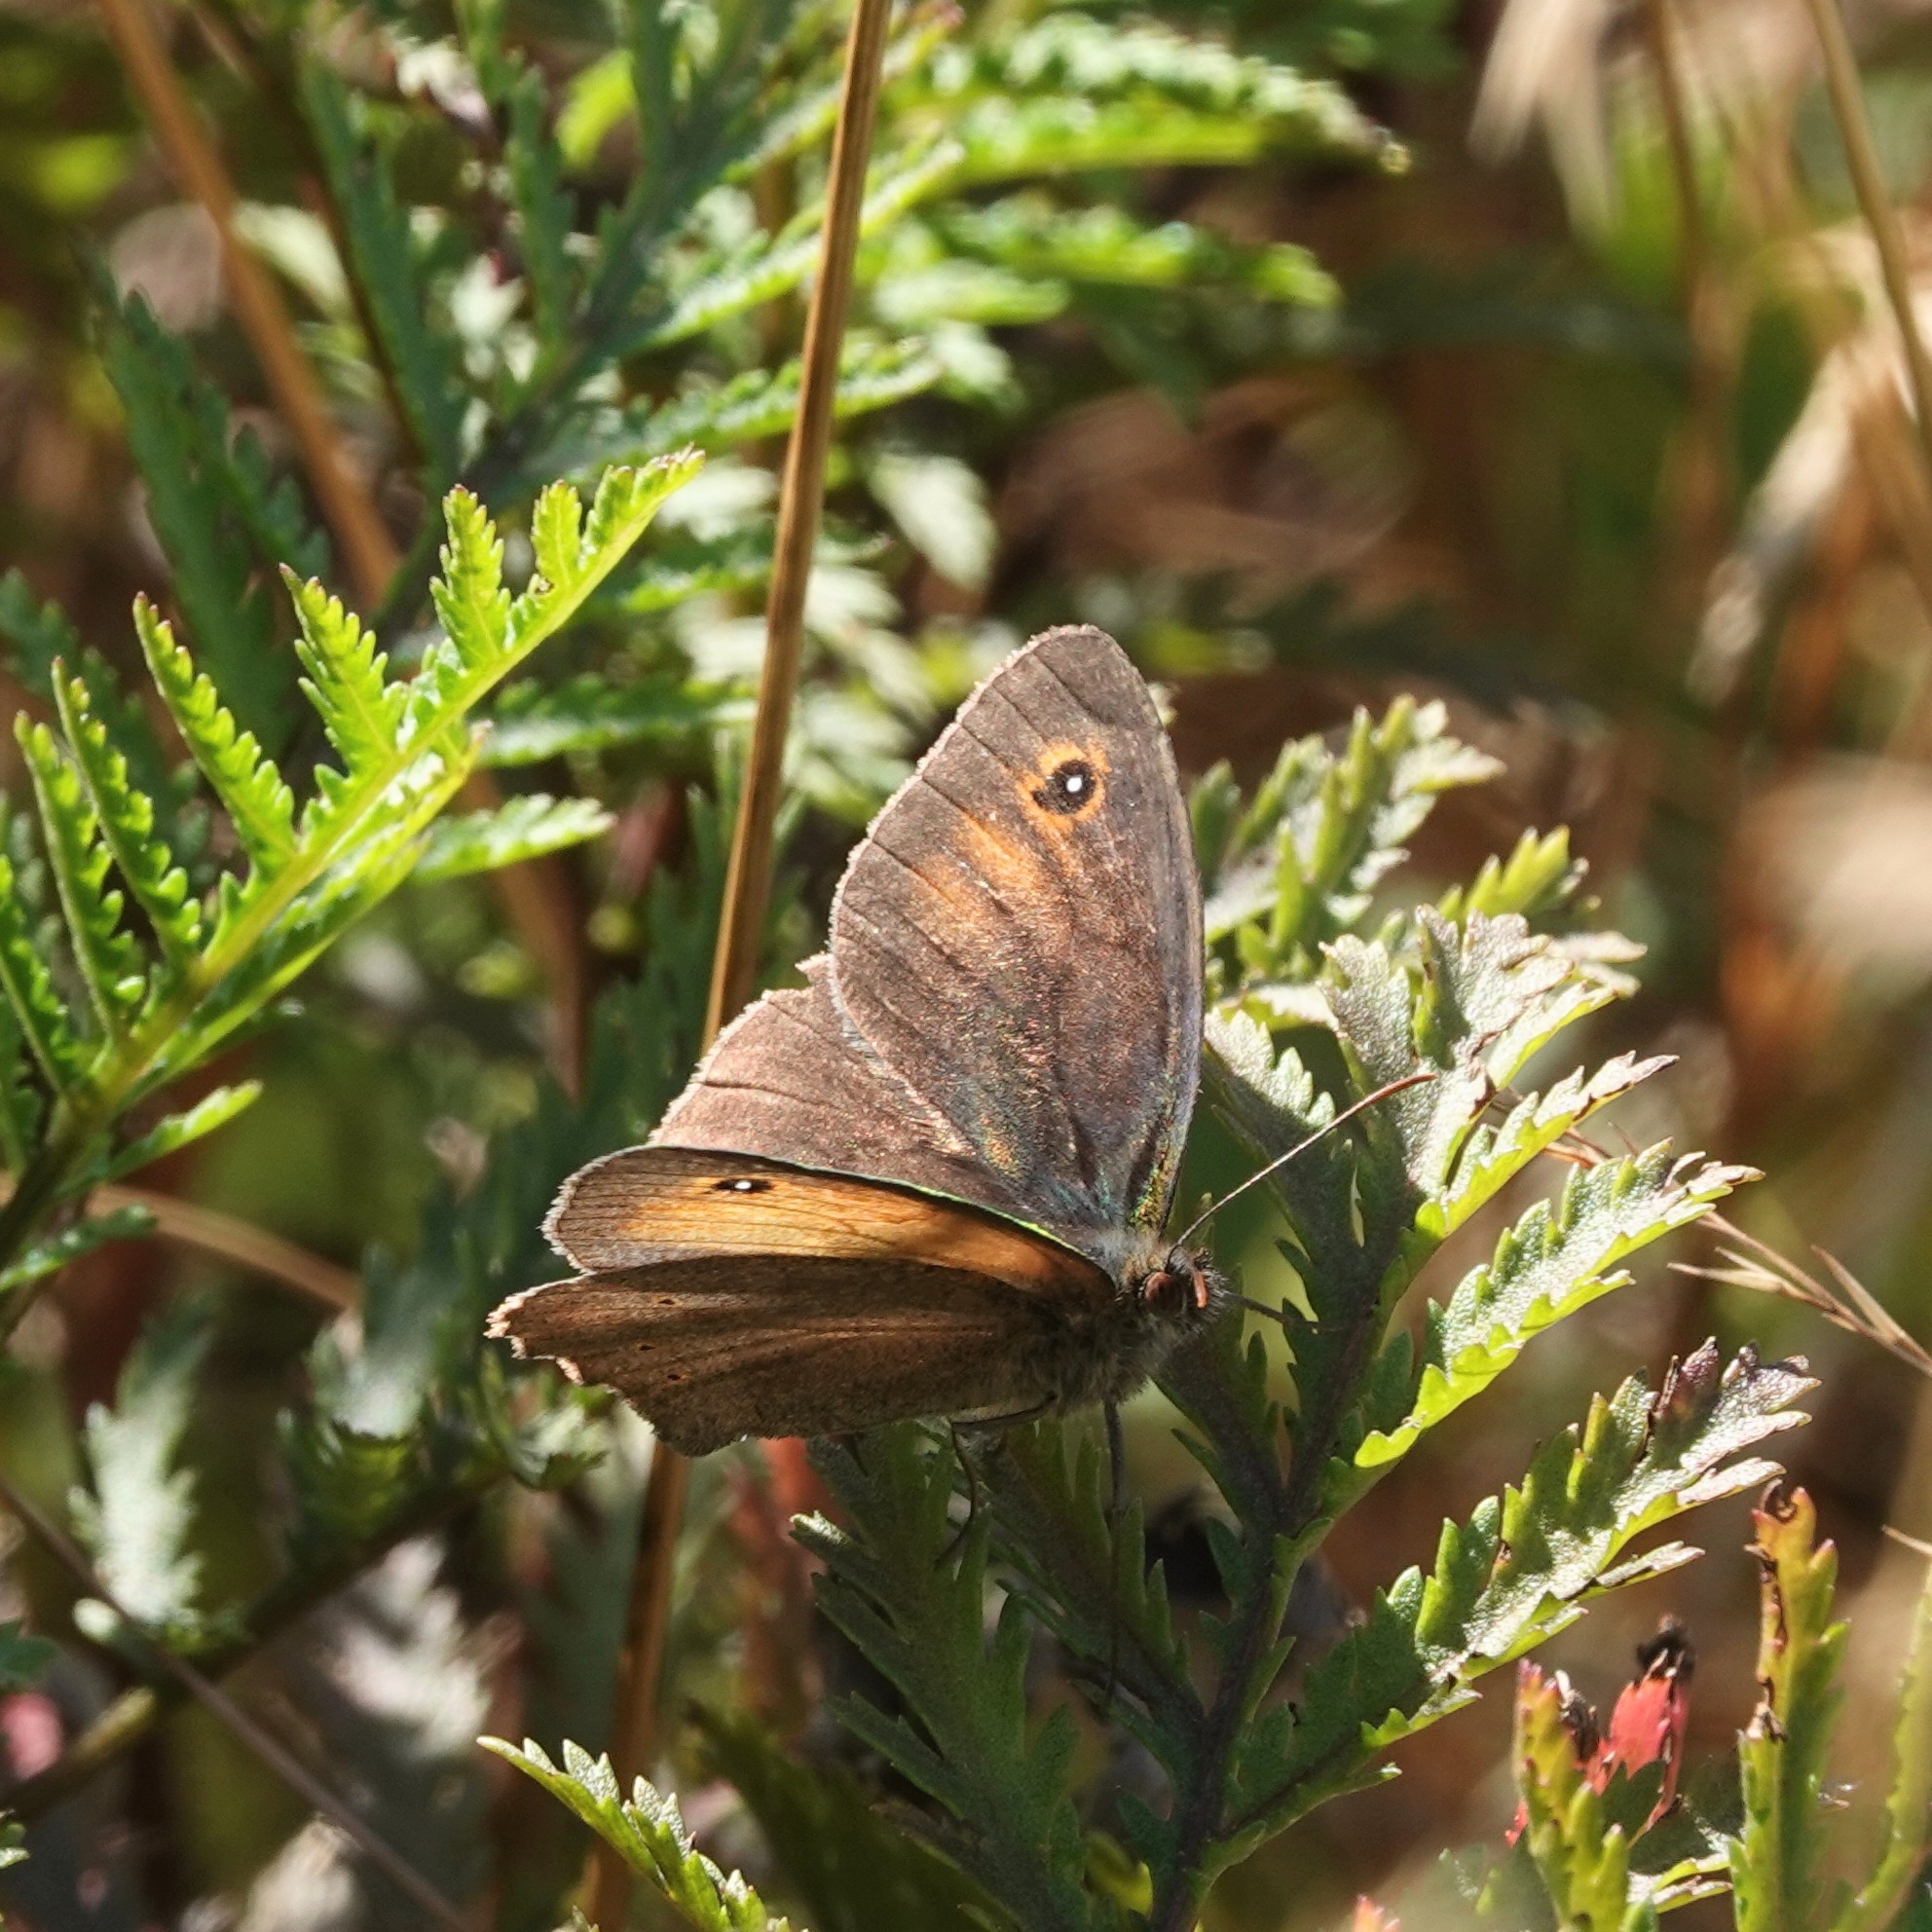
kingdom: Animalia
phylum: Arthropoda
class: Insecta
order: Lepidoptera
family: Nymphalidae
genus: Maniola
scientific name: Maniola jurtina
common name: Meadow brown
